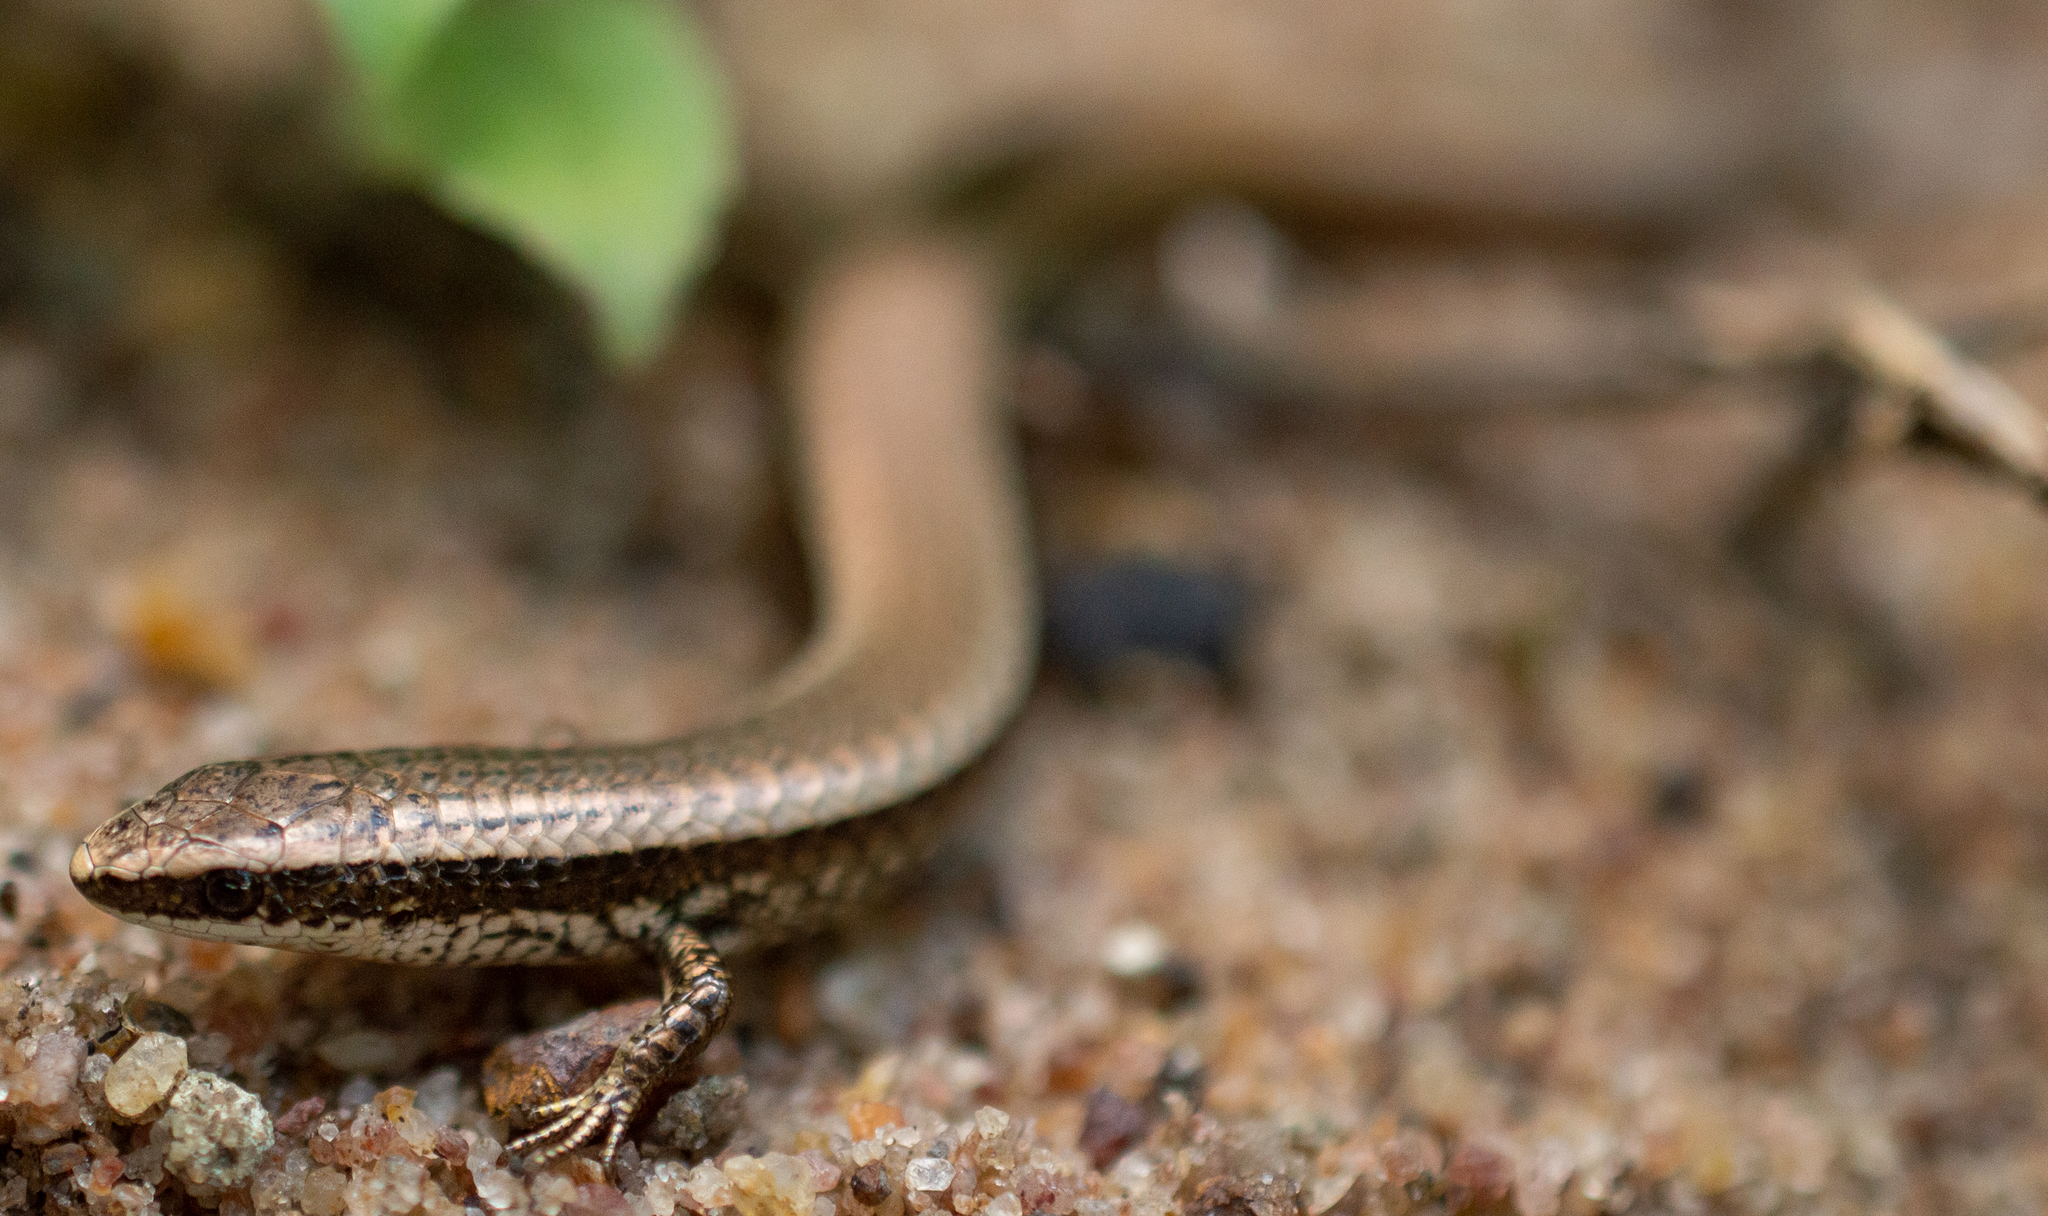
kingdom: Animalia
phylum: Chordata
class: Squamata
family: Gymnophthalmidae
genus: Gymnophthalmus
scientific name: Gymnophthalmus leucomystax
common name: White spectacied tegu
